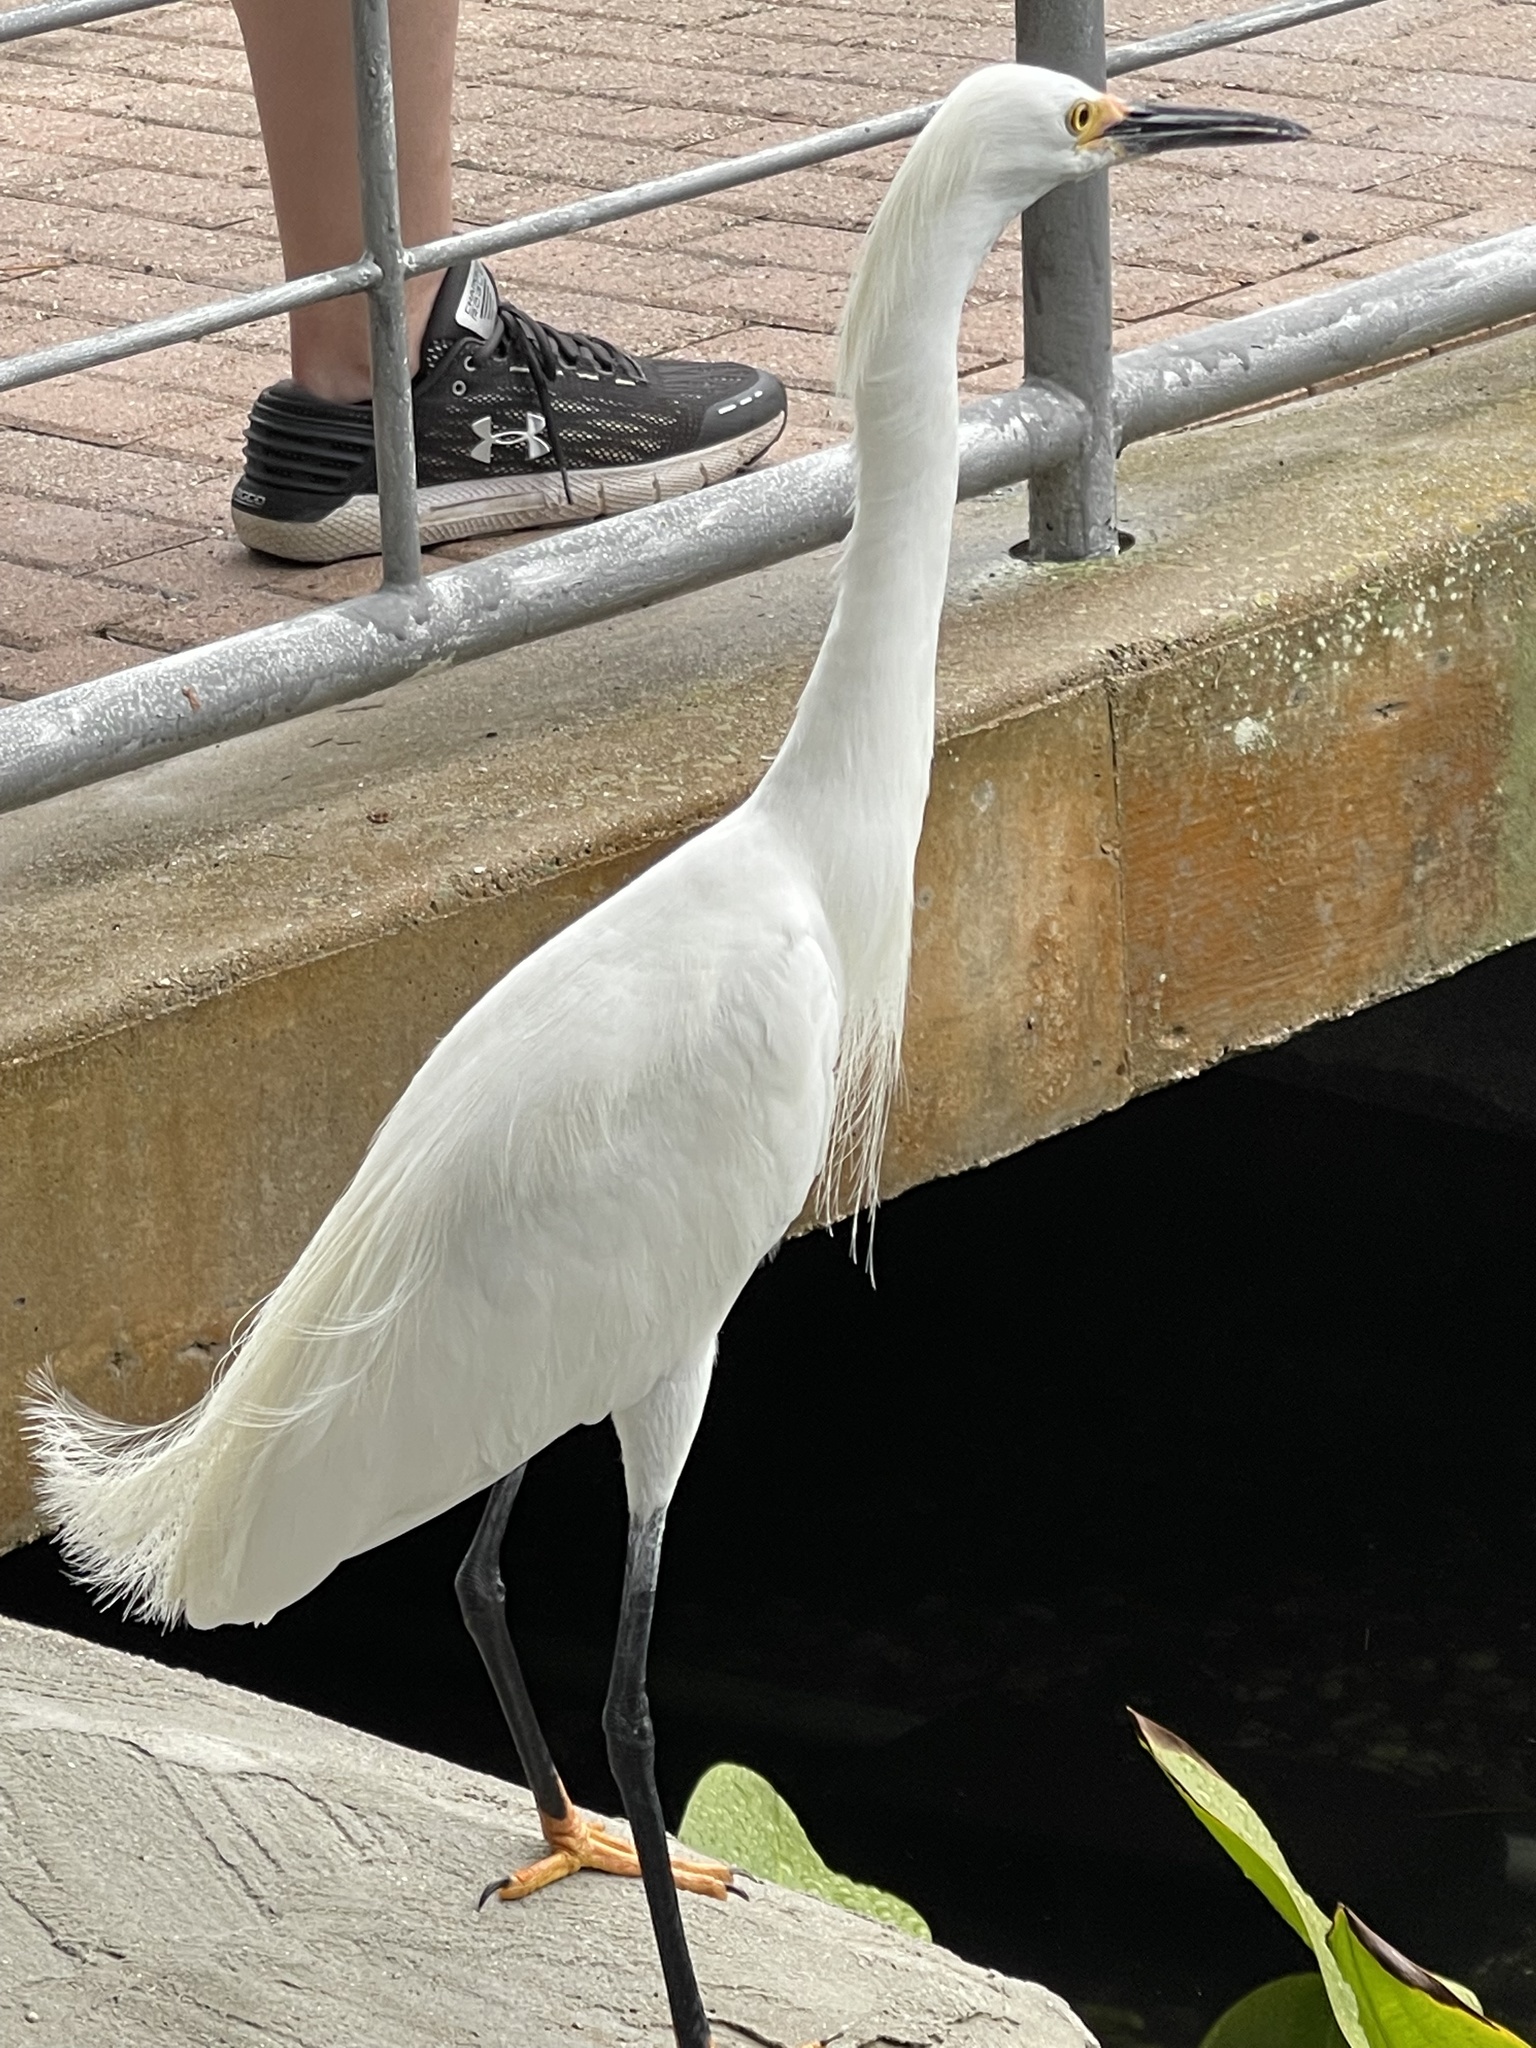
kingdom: Animalia
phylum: Chordata
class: Aves
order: Pelecaniformes
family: Ardeidae
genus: Egretta
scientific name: Egretta thula
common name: Snowy egret
